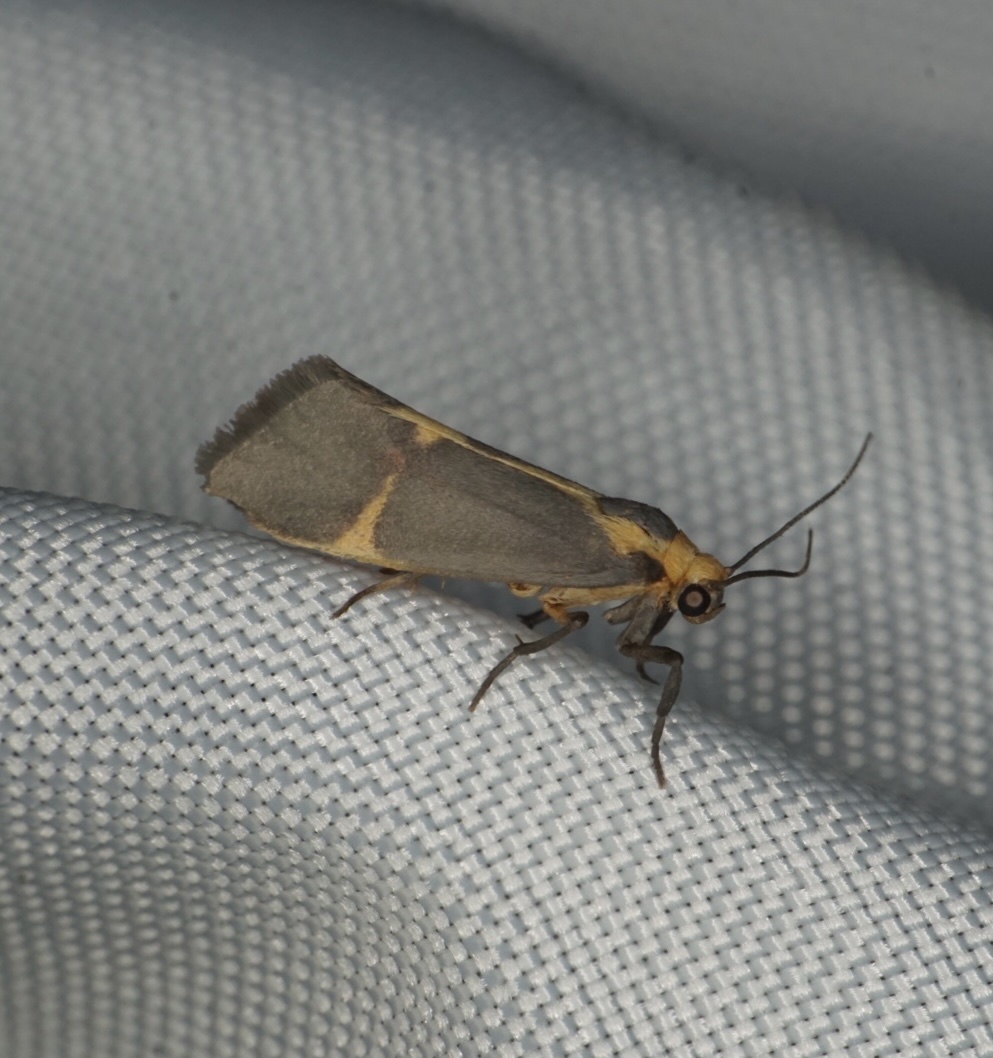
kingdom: Animalia
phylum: Arthropoda
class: Insecta
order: Lepidoptera
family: Erebidae
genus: Cisthene
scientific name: Cisthene tenuifascia
